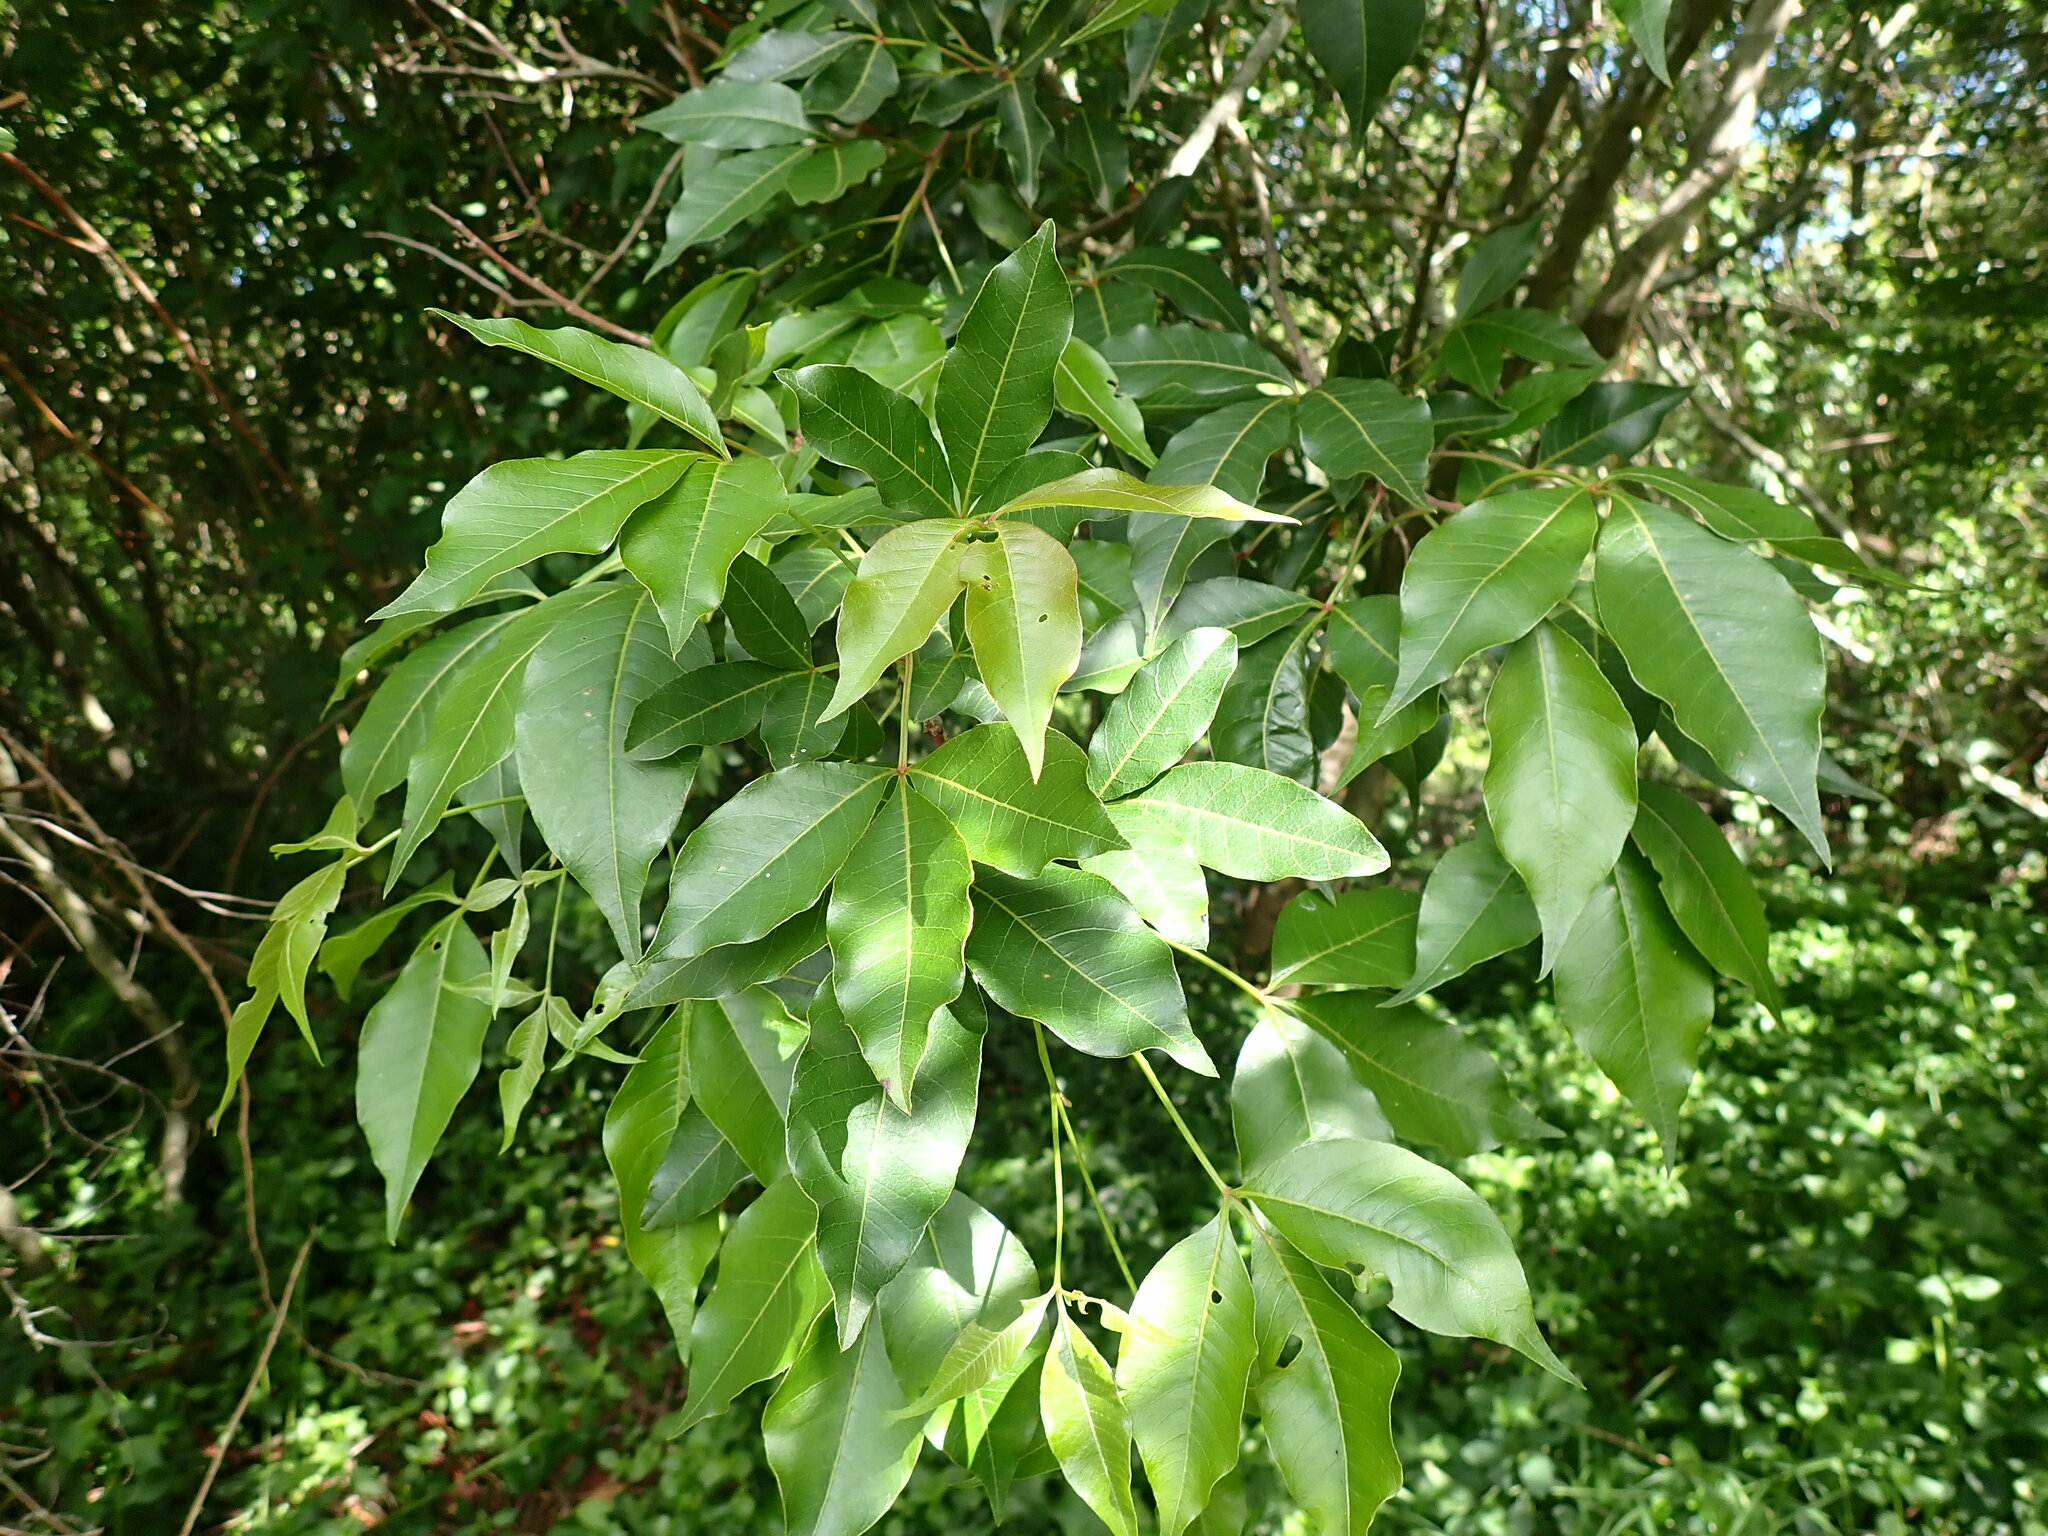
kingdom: Plantae
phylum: Tracheophyta
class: Magnoliopsida
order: Sapindales
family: Anacardiaceae
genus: Searsia
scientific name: Searsia chirindensis
